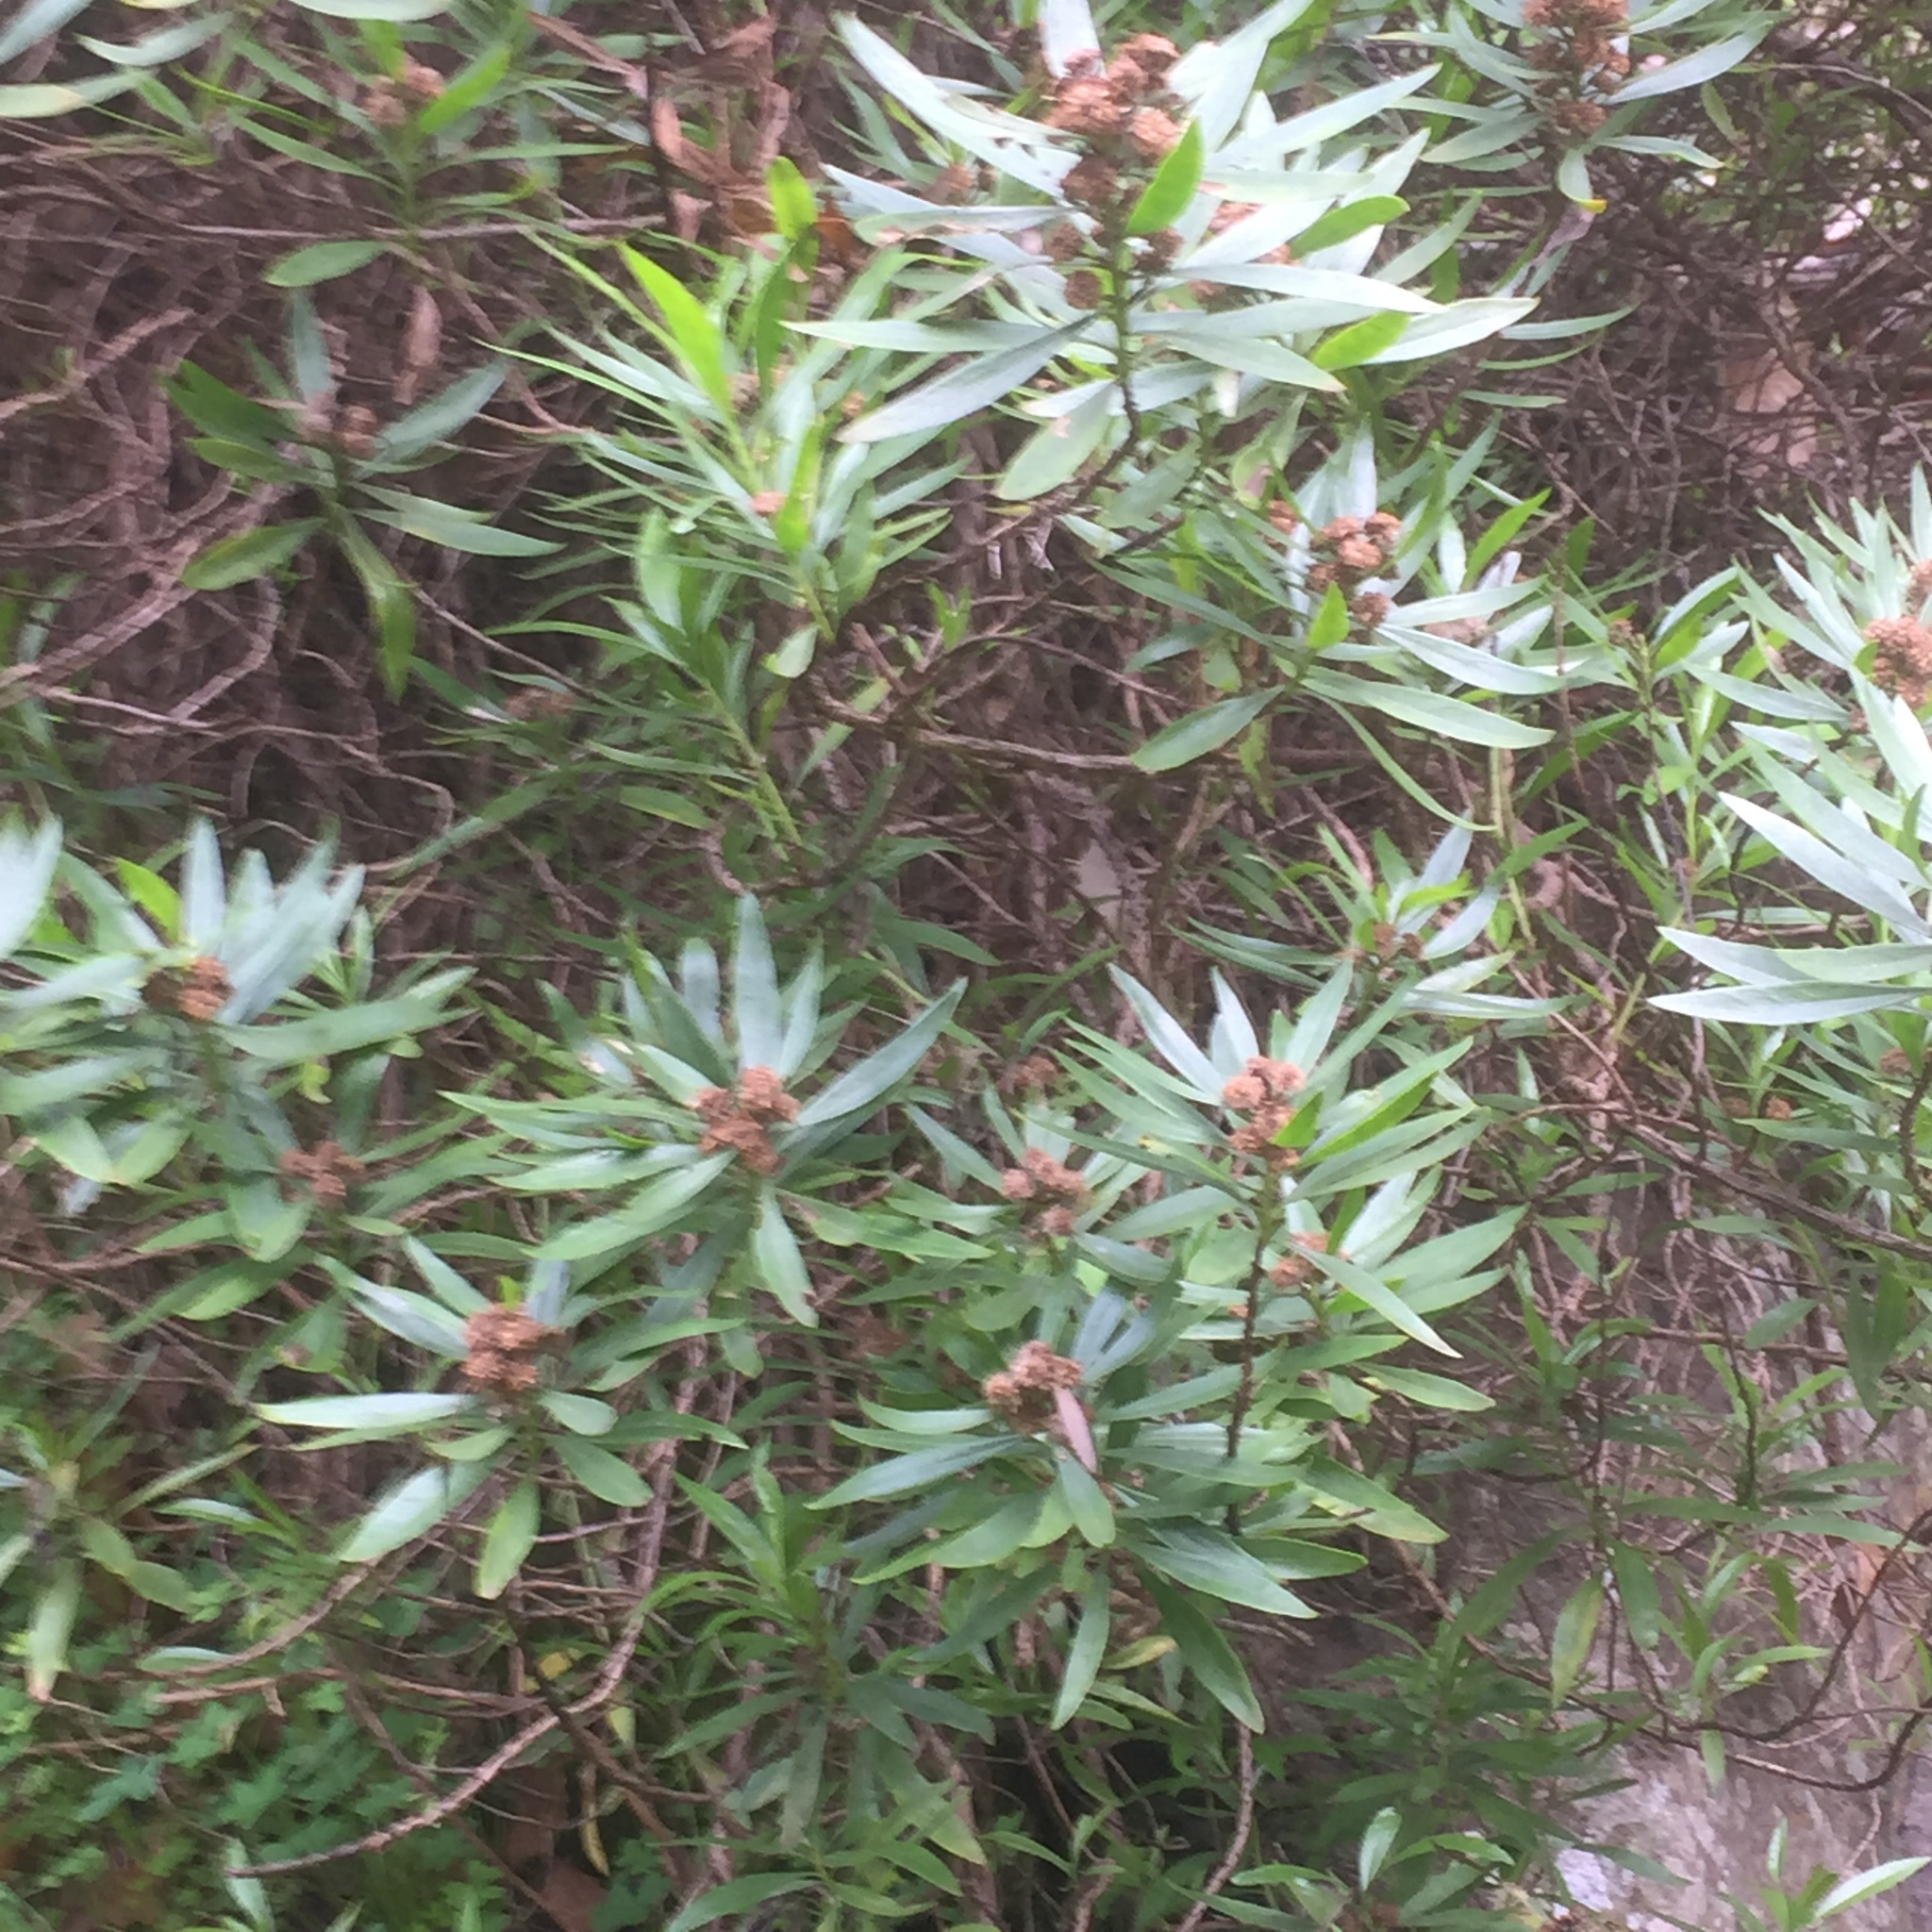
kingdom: Plantae
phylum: Tracheophyta
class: Magnoliopsida
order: Lamiales
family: Plantaginaceae
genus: Globularia
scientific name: Globularia salicina
